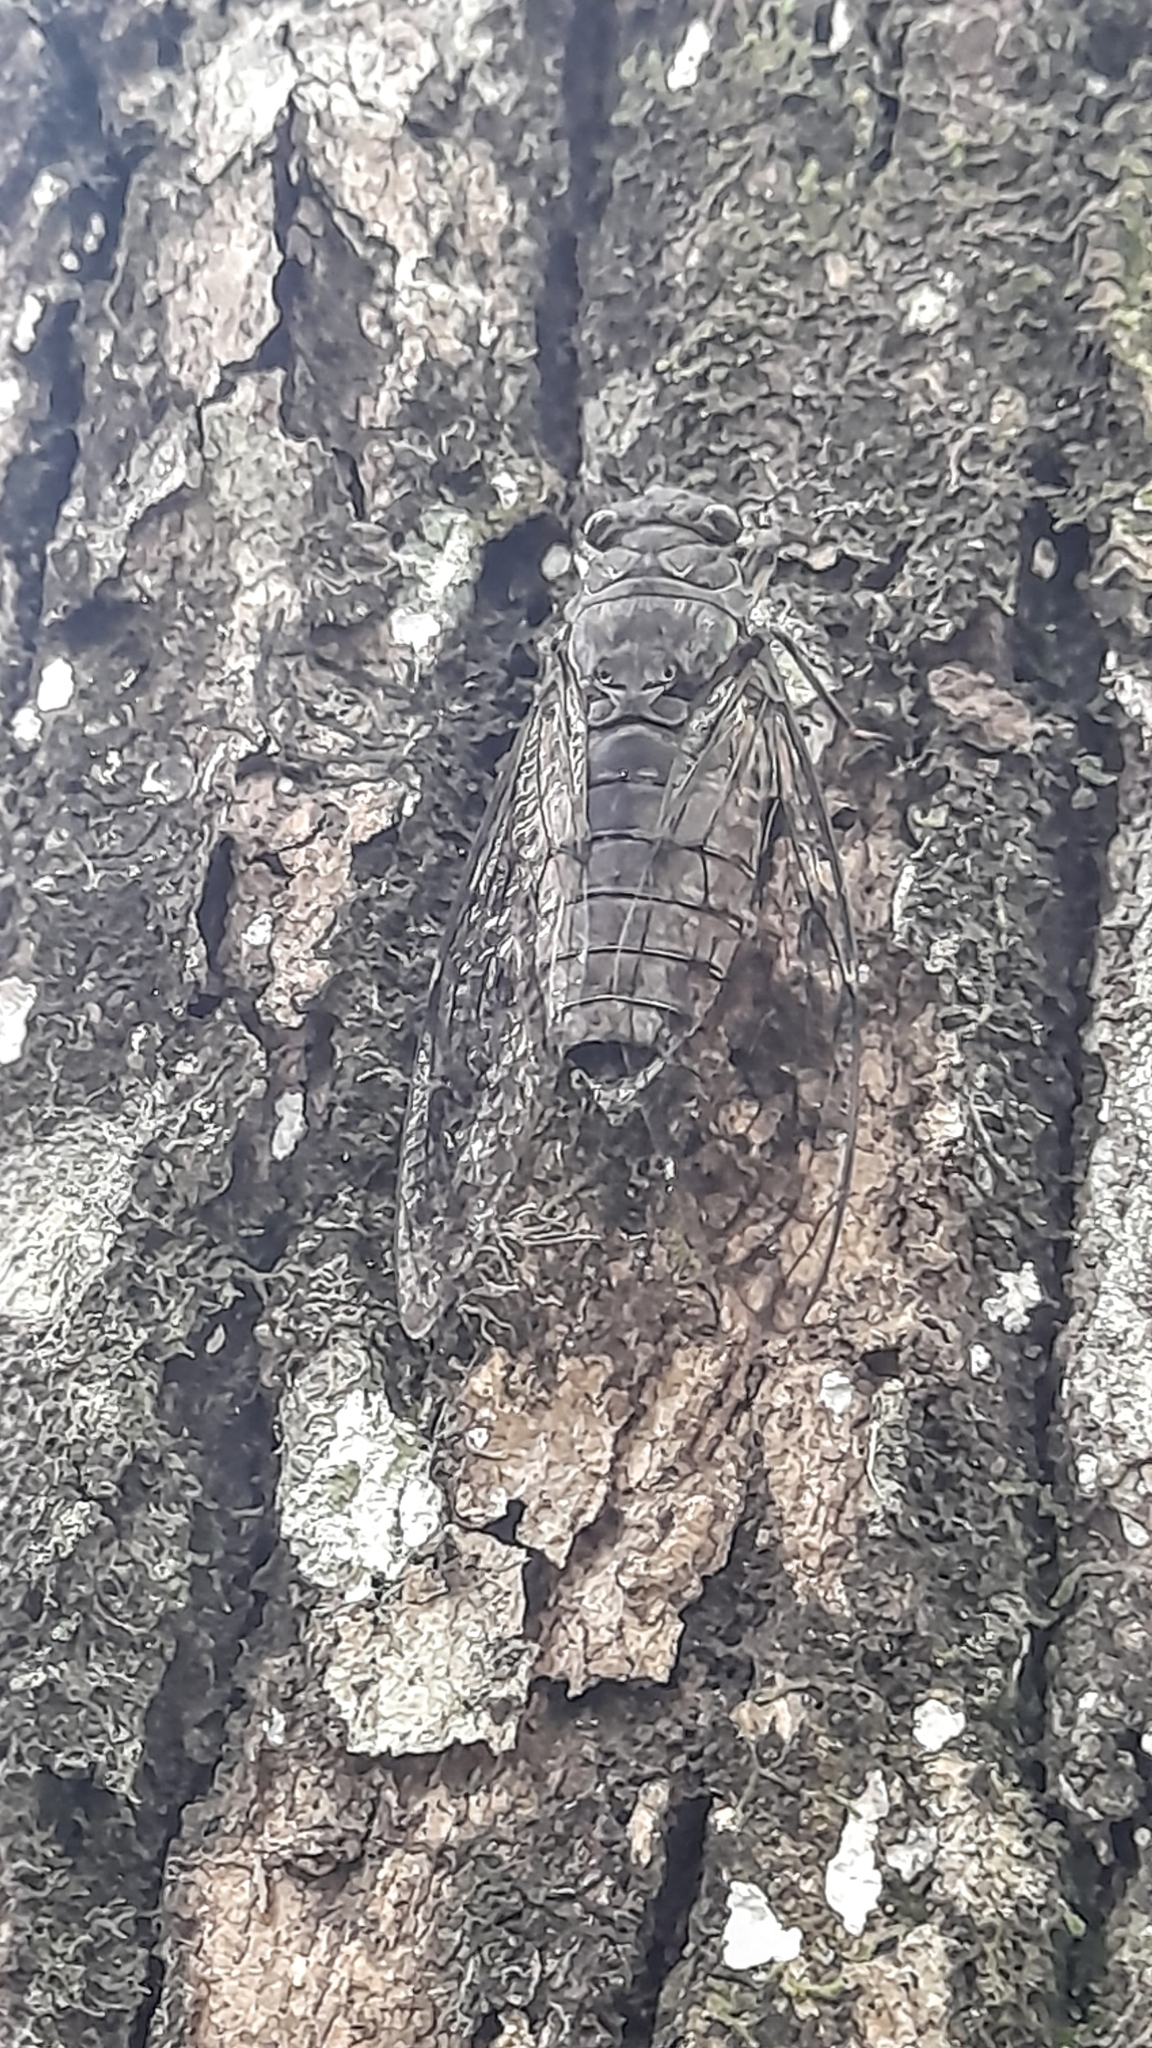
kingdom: Animalia
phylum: Arthropoda
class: Insecta
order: Hemiptera
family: Cicadidae
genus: Pomponia
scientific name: Pomponia yayeyamana
